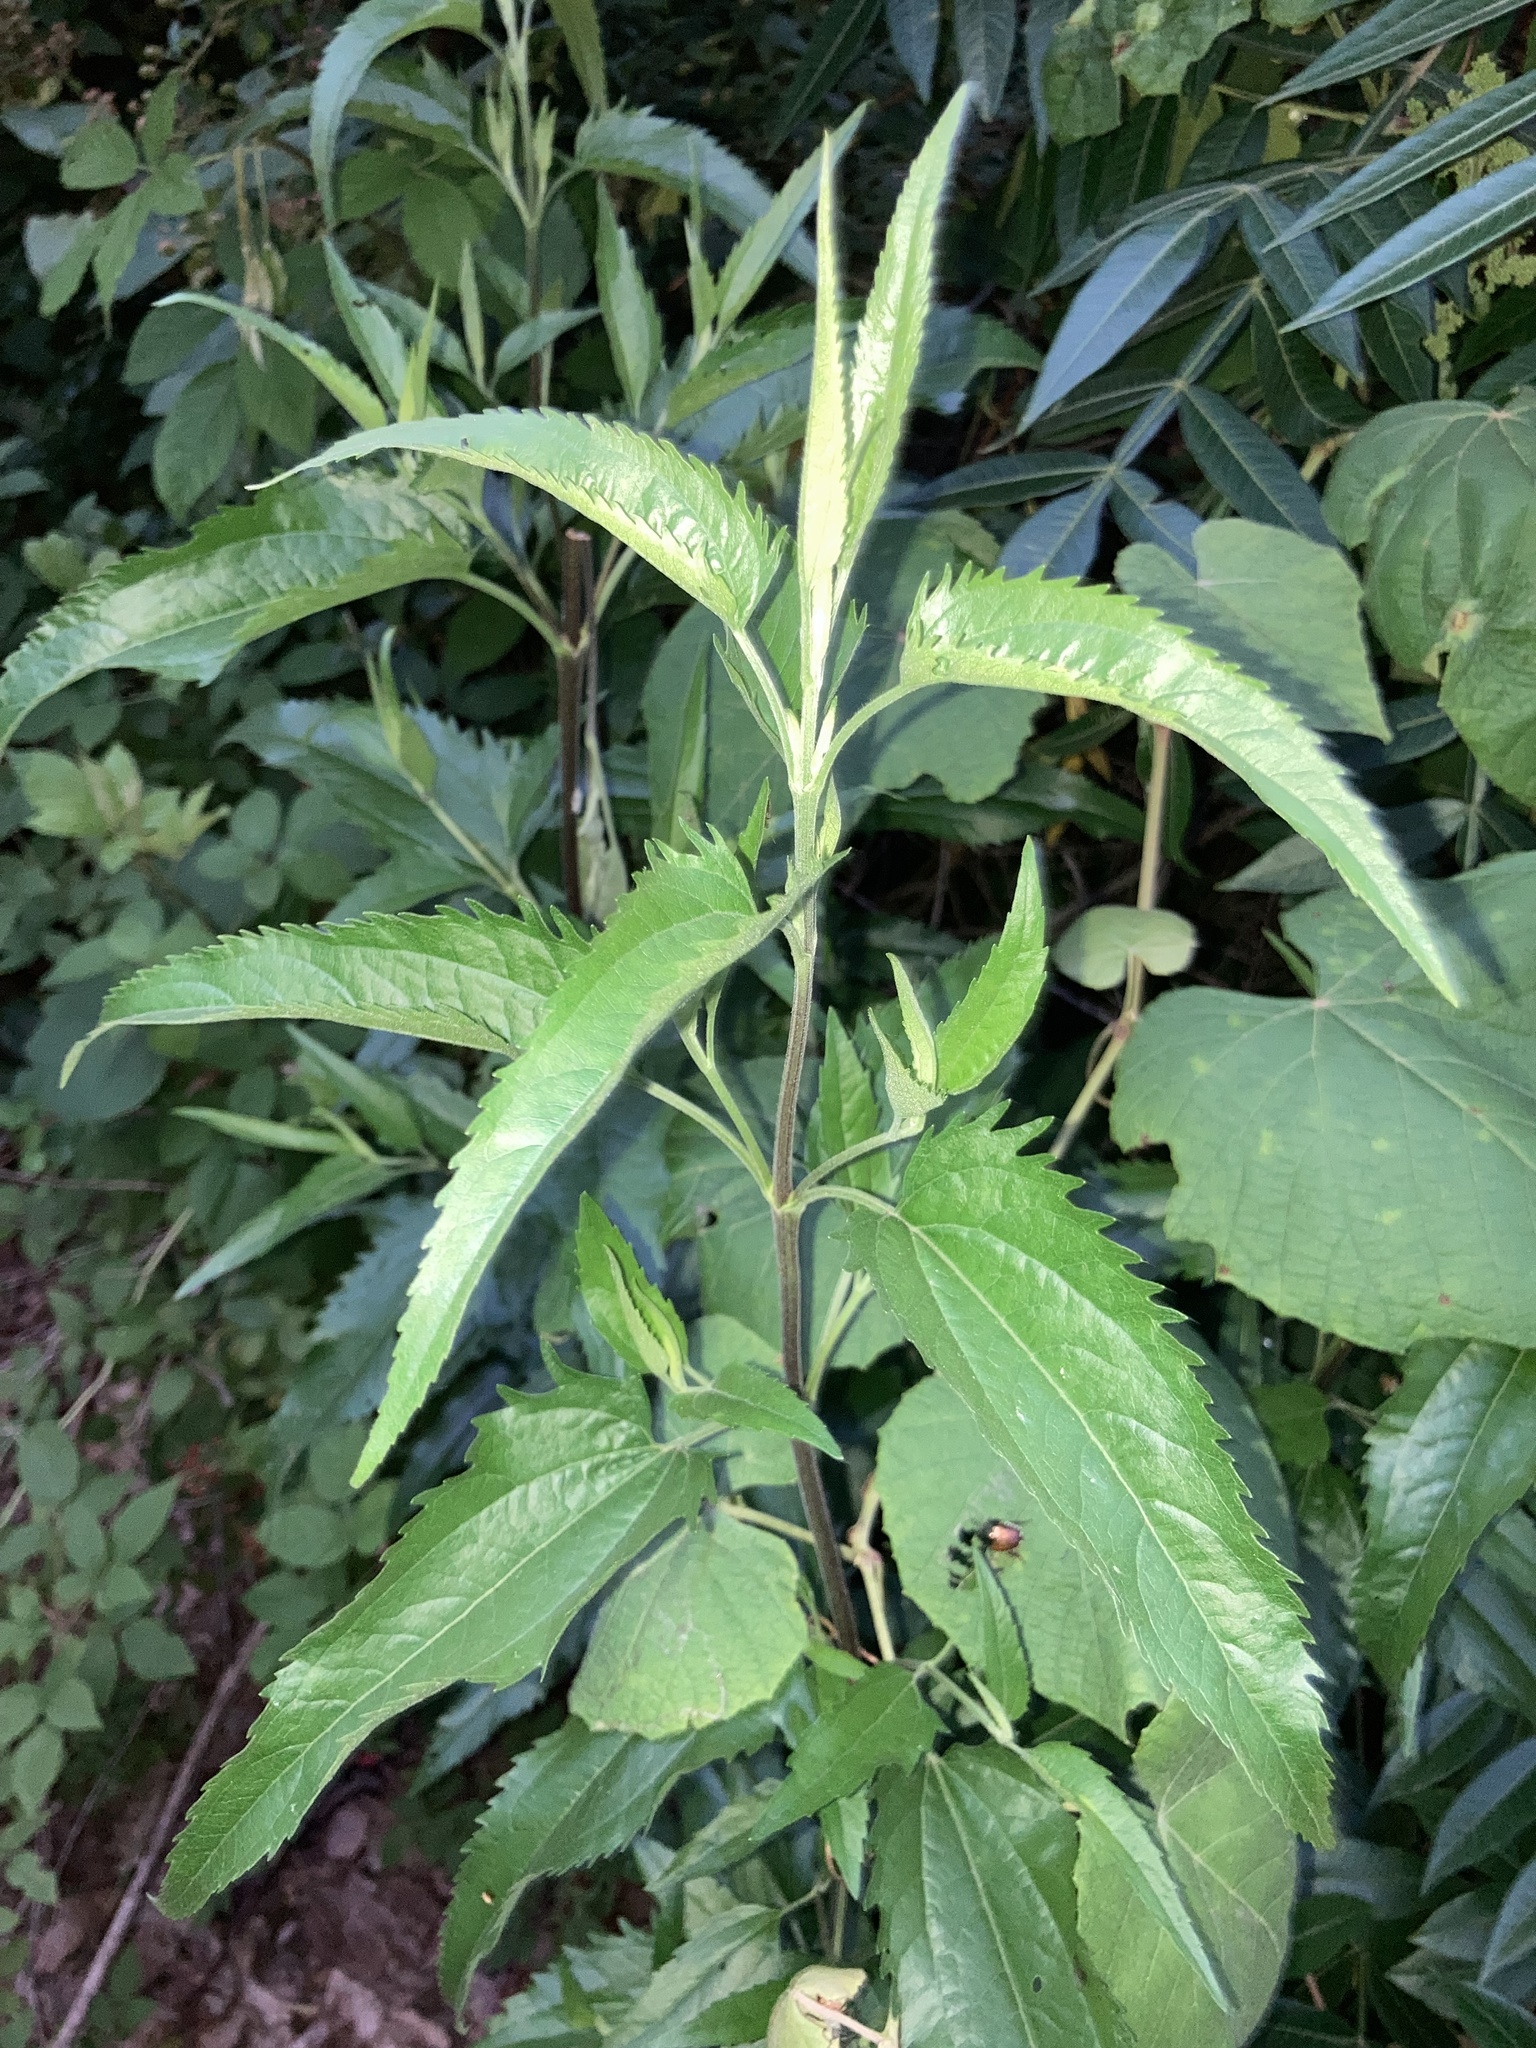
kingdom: Plantae
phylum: Tracheophyta
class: Magnoliopsida
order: Asterales
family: Asteraceae
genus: Eupatorium
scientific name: Eupatorium serotinum
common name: Late boneset
